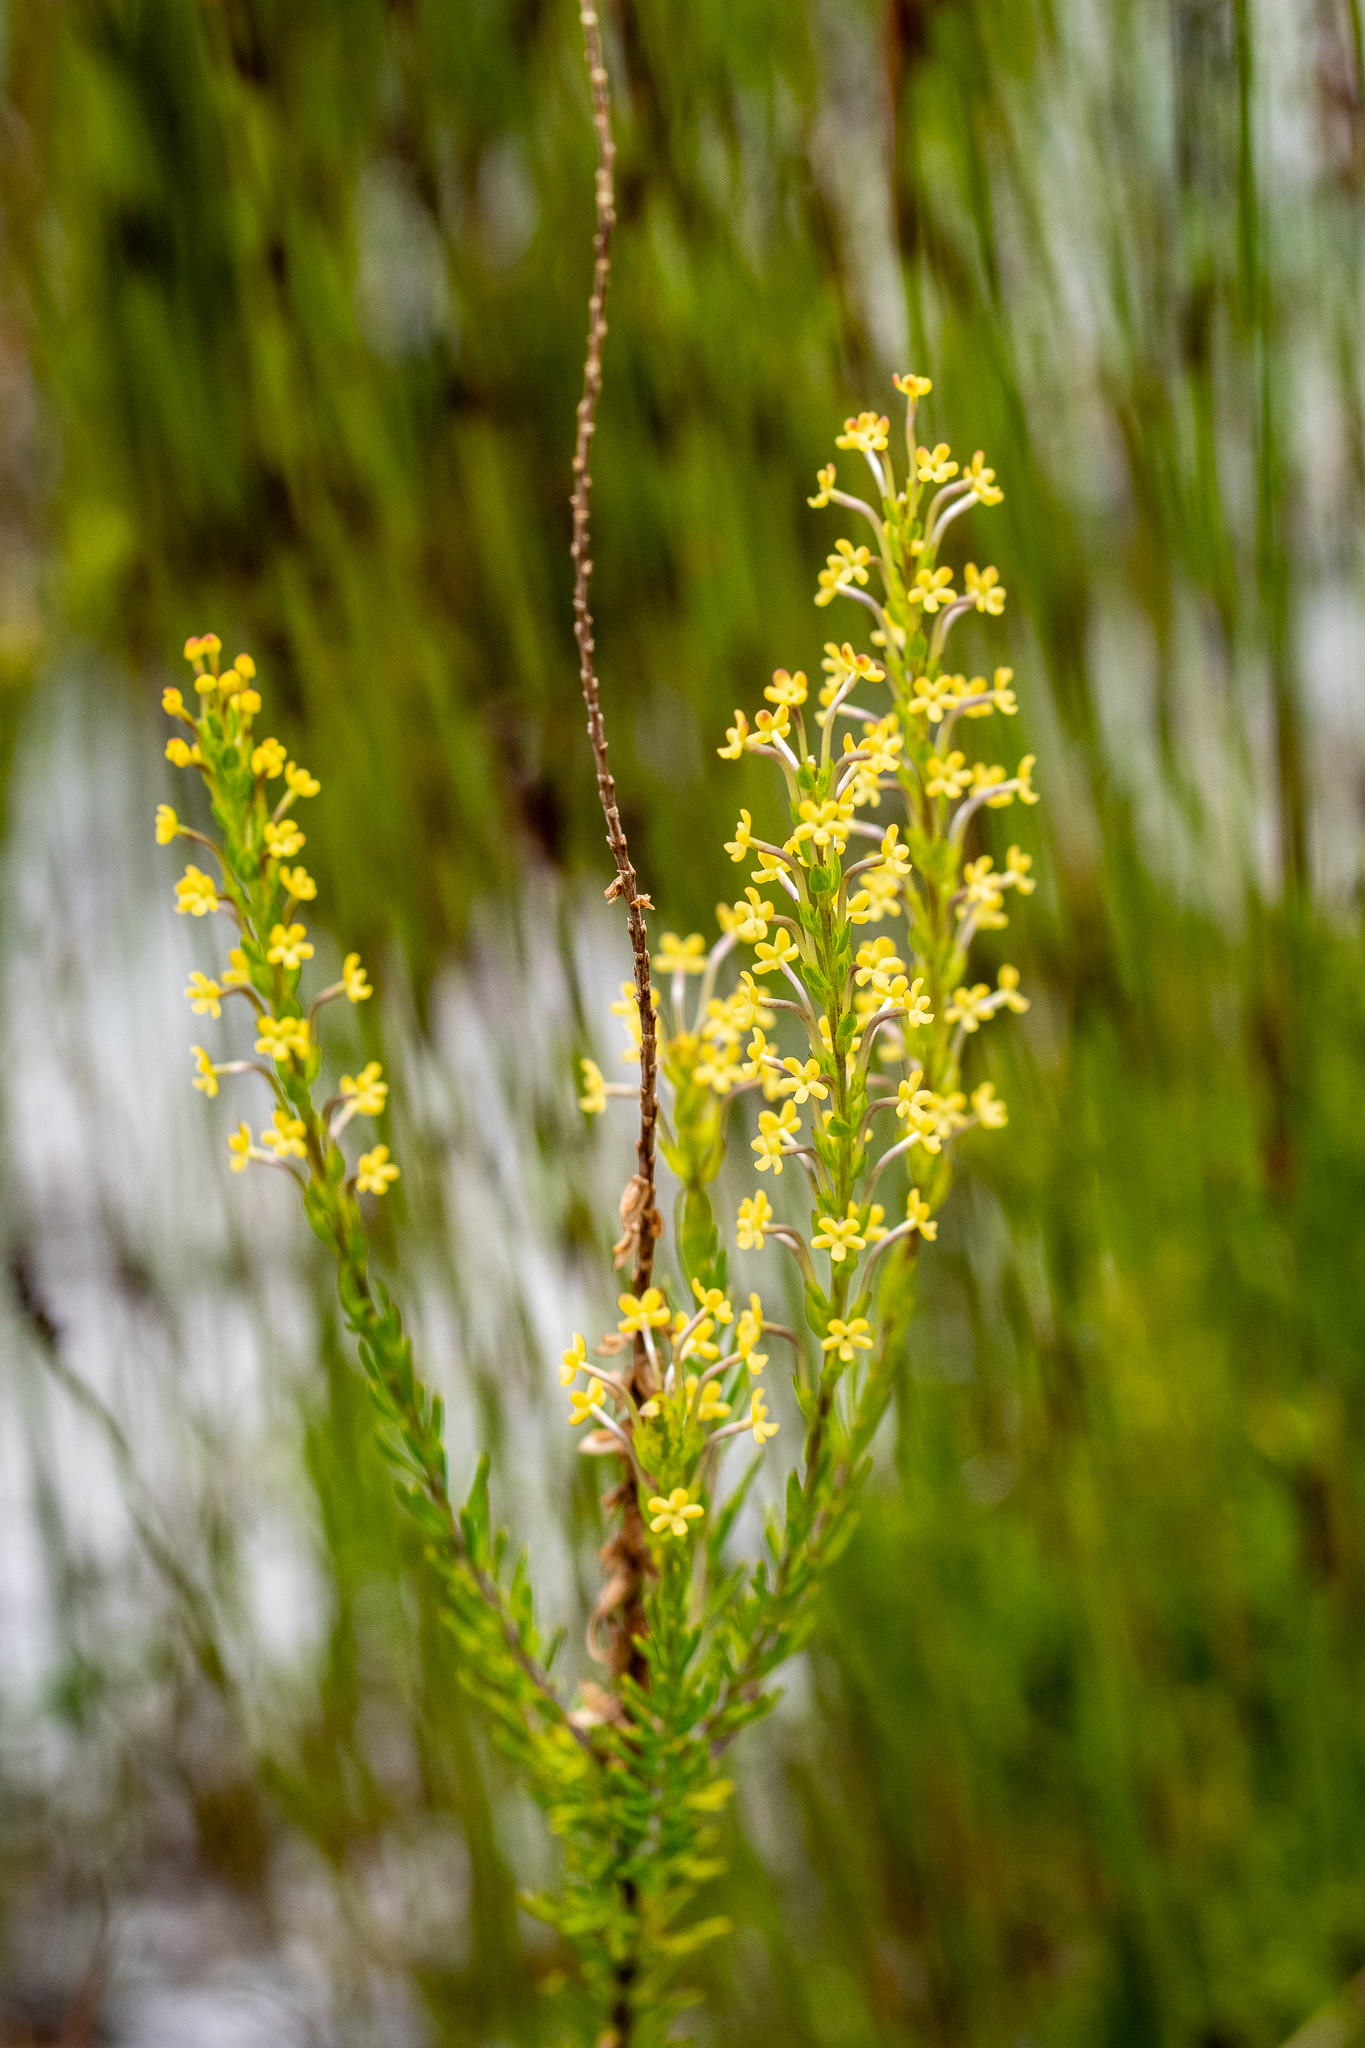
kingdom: Plantae
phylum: Tracheophyta
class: Magnoliopsida
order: Lamiales
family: Scrophulariaceae
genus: Microdon
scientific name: Microdon dubius
